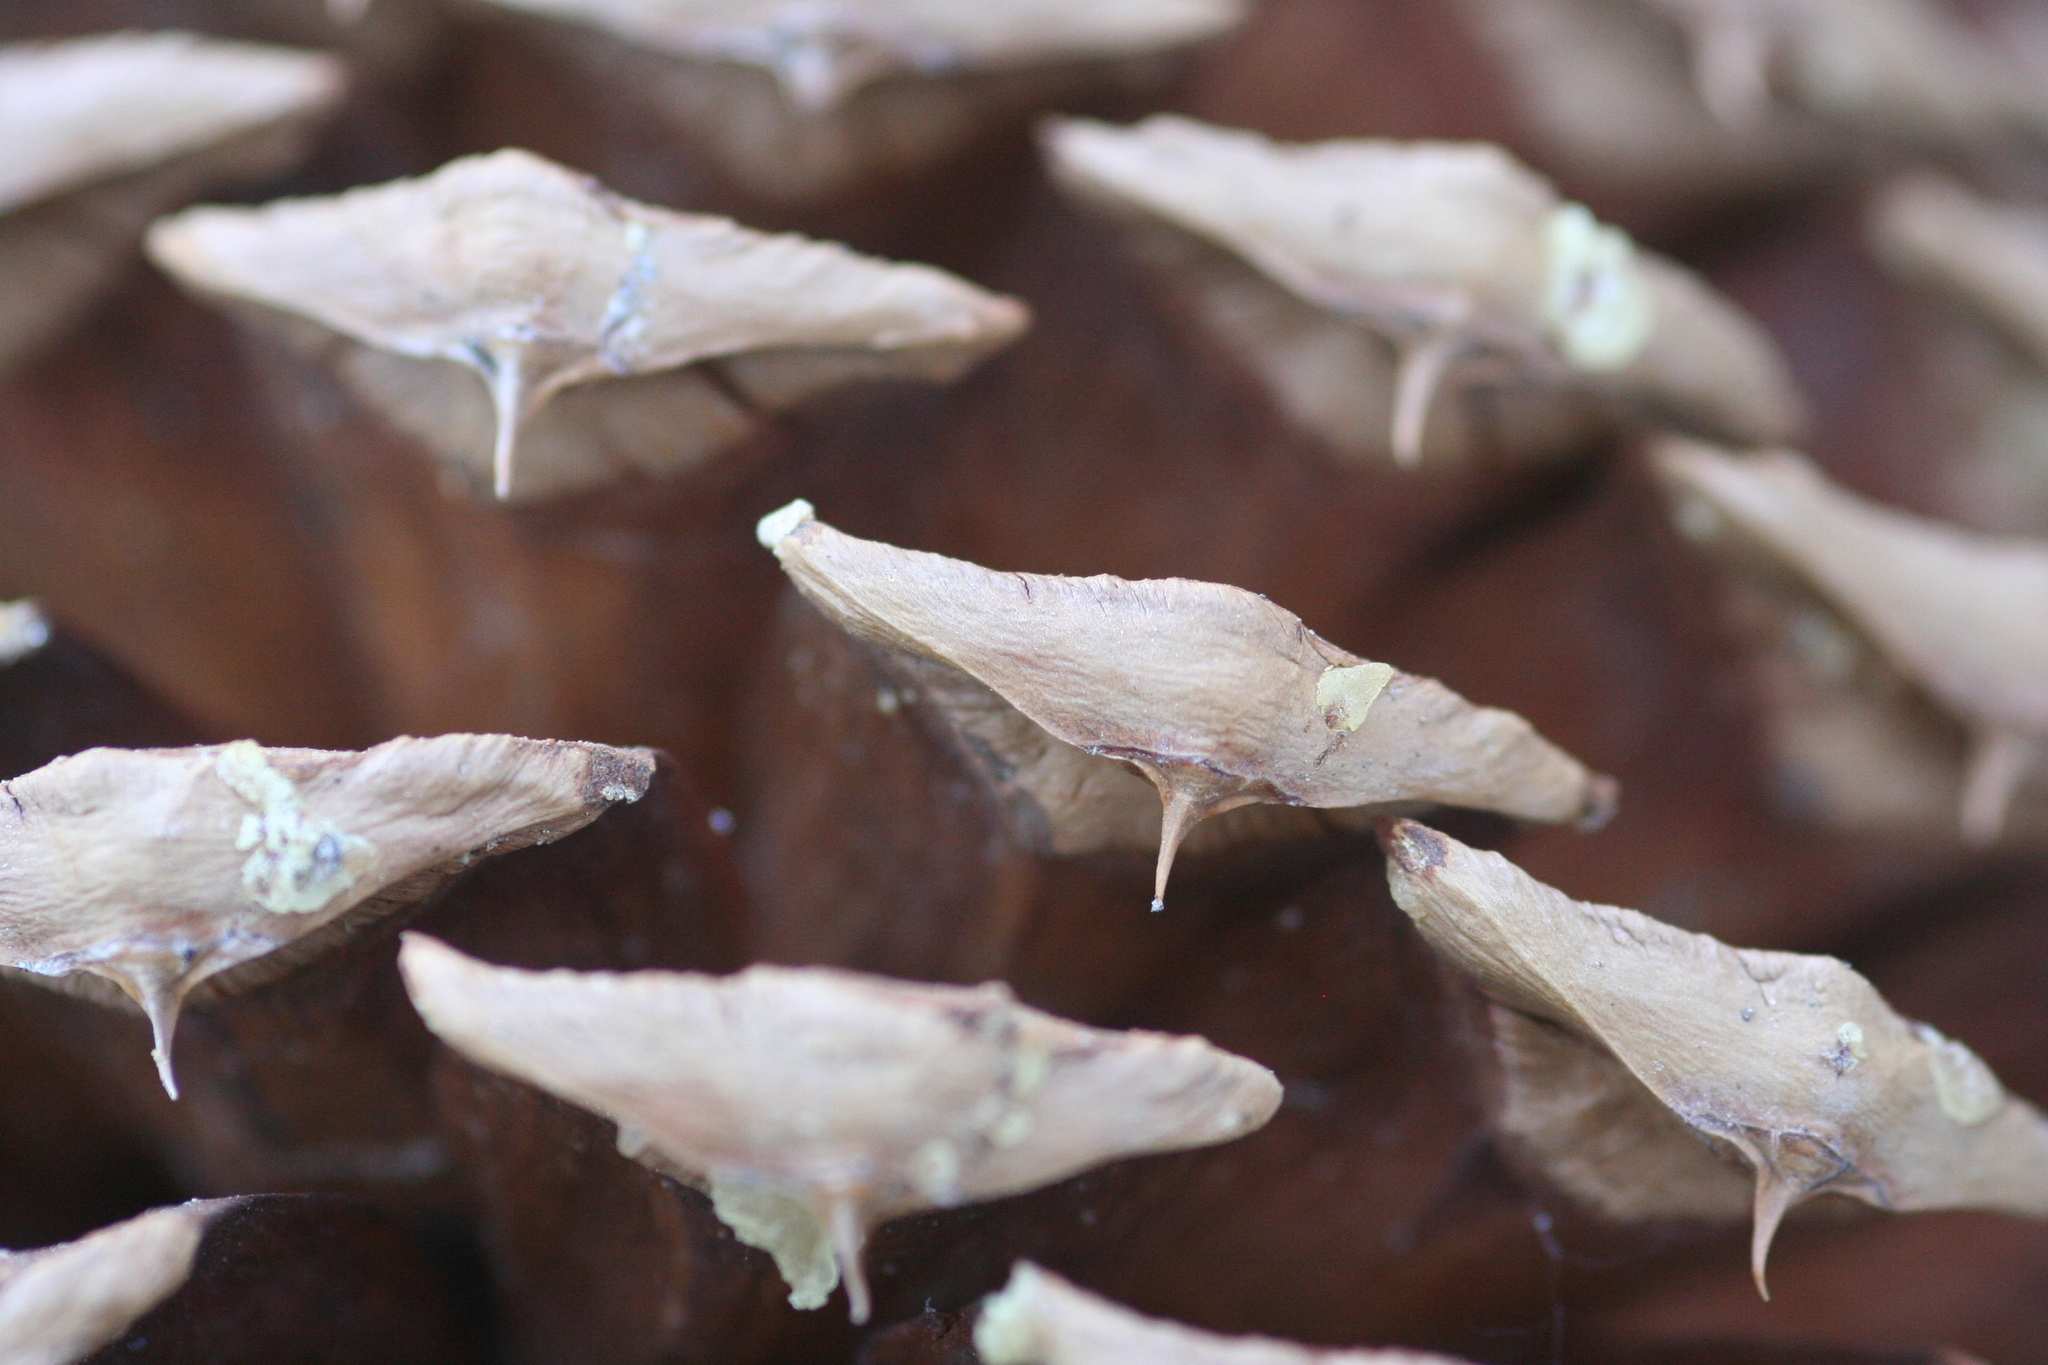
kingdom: Plantae
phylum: Tracheophyta
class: Pinopsida
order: Pinales
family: Pinaceae
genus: Pinus
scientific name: Pinus jeffreyi
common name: Jeffrey pine
